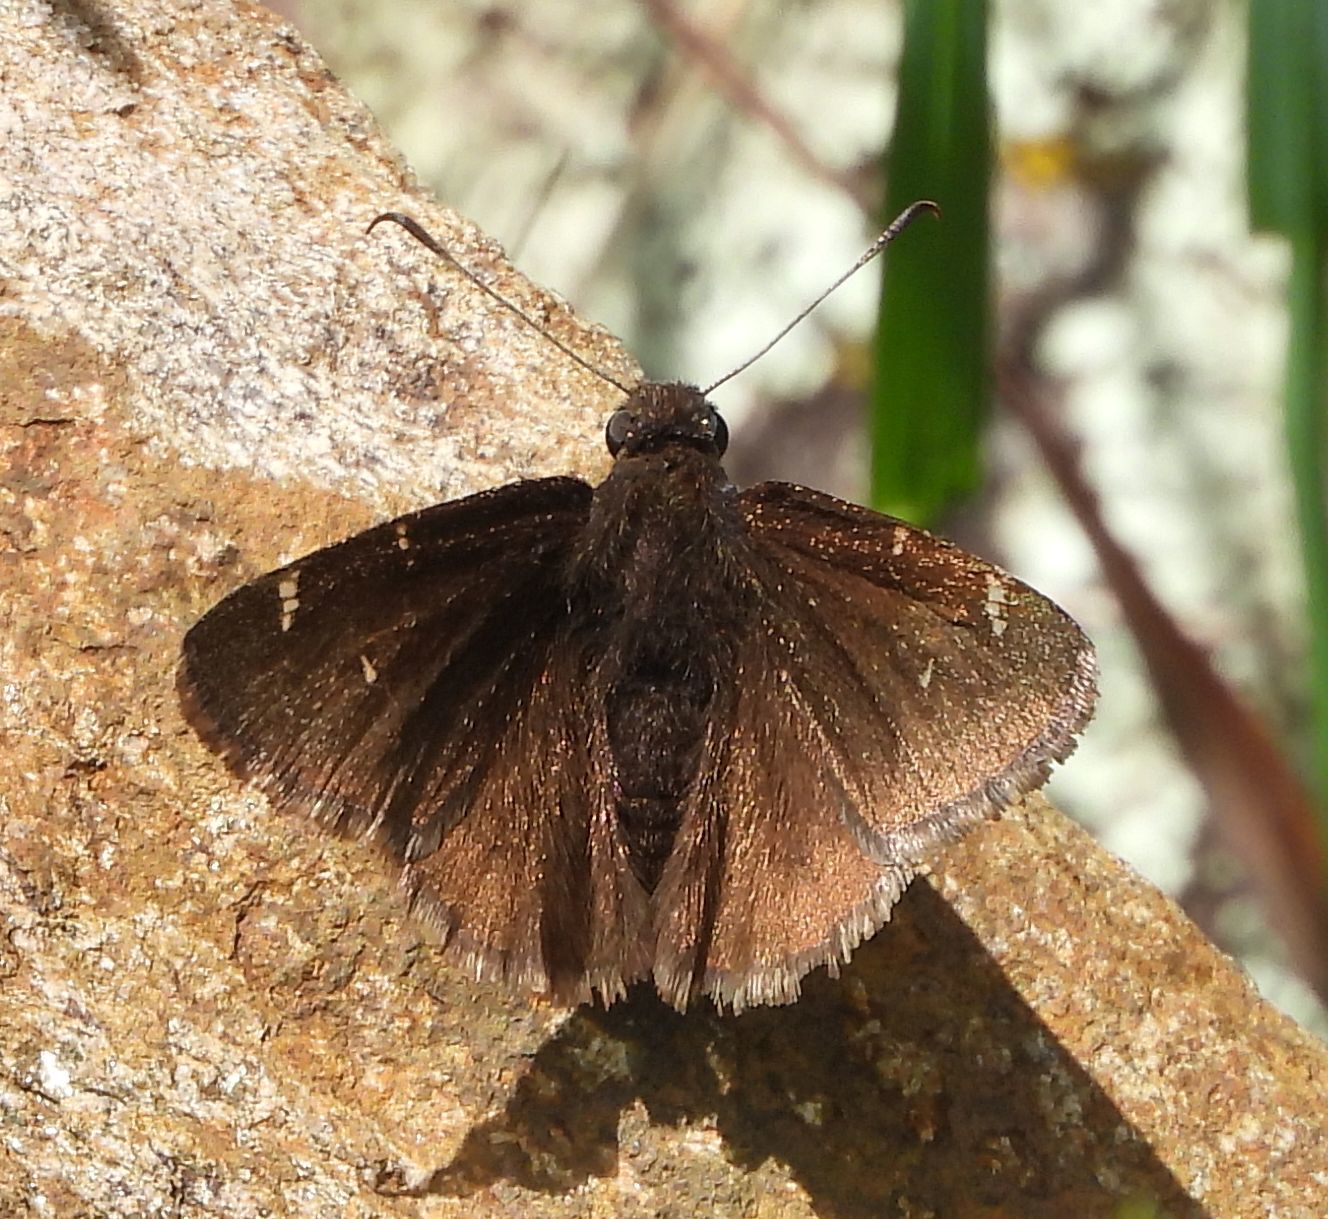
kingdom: Animalia
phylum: Arthropoda
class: Insecta
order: Lepidoptera
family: Hesperiidae
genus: Thorybes
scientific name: Thorybes pylades
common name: Northern cloudywing
